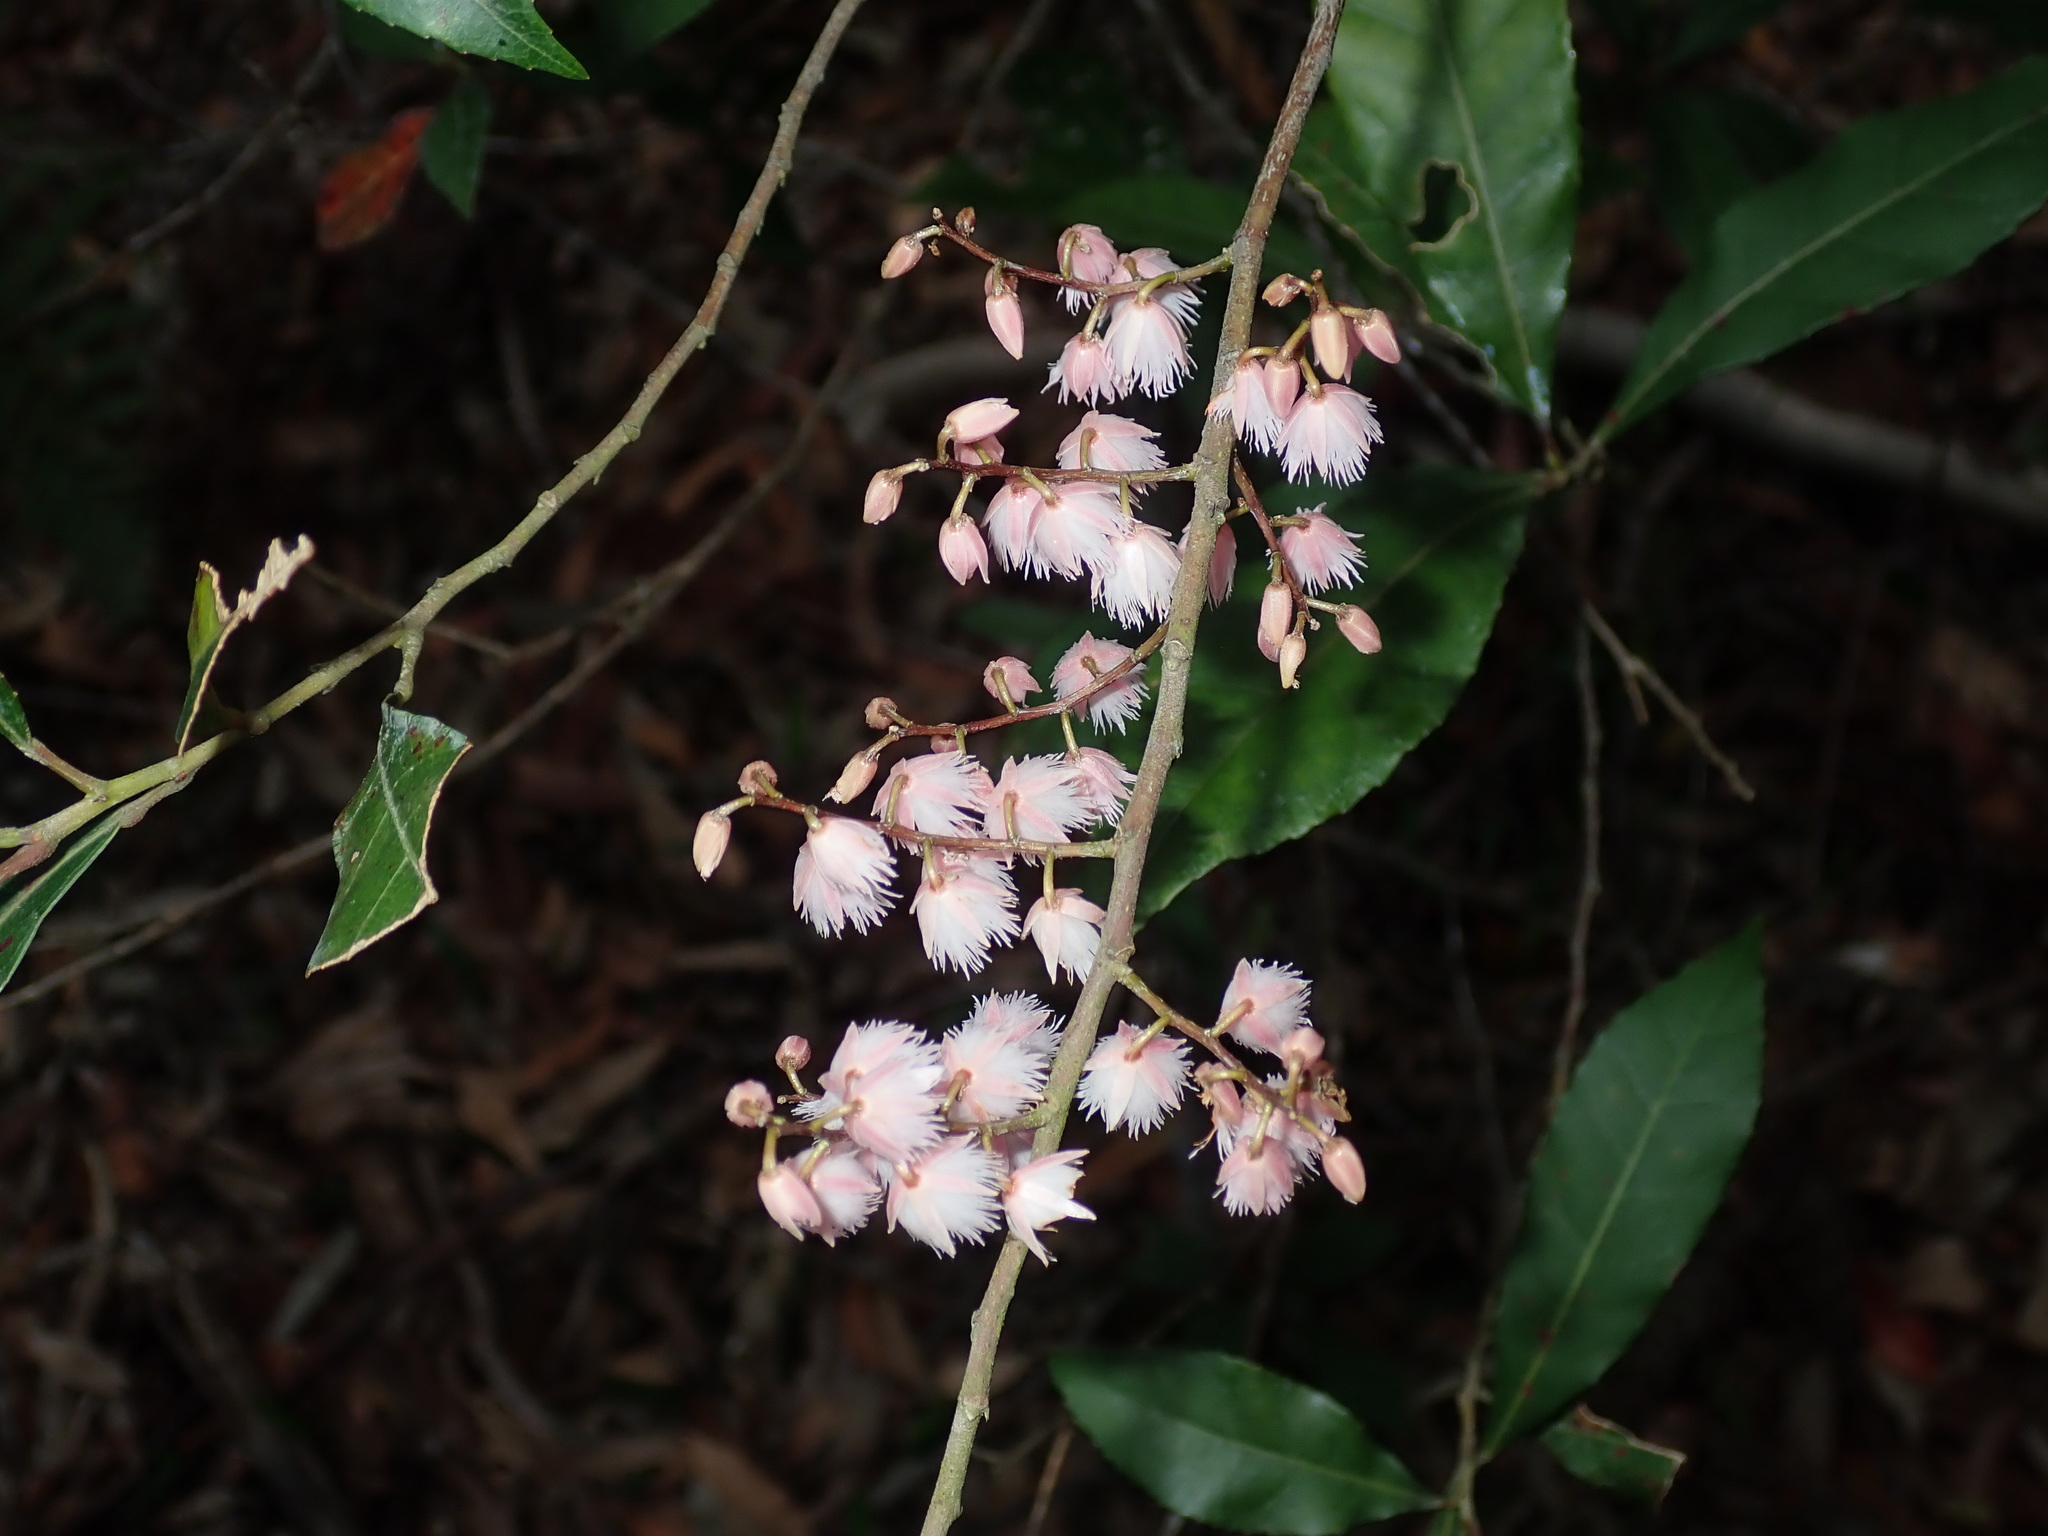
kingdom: Plantae
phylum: Tracheophyta
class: Magnoliopsida
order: Oxalidales
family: Elaeocarpaceae
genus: Elaeocarpus
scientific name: Elaeocarpus reticulatus
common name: Ash quandong
